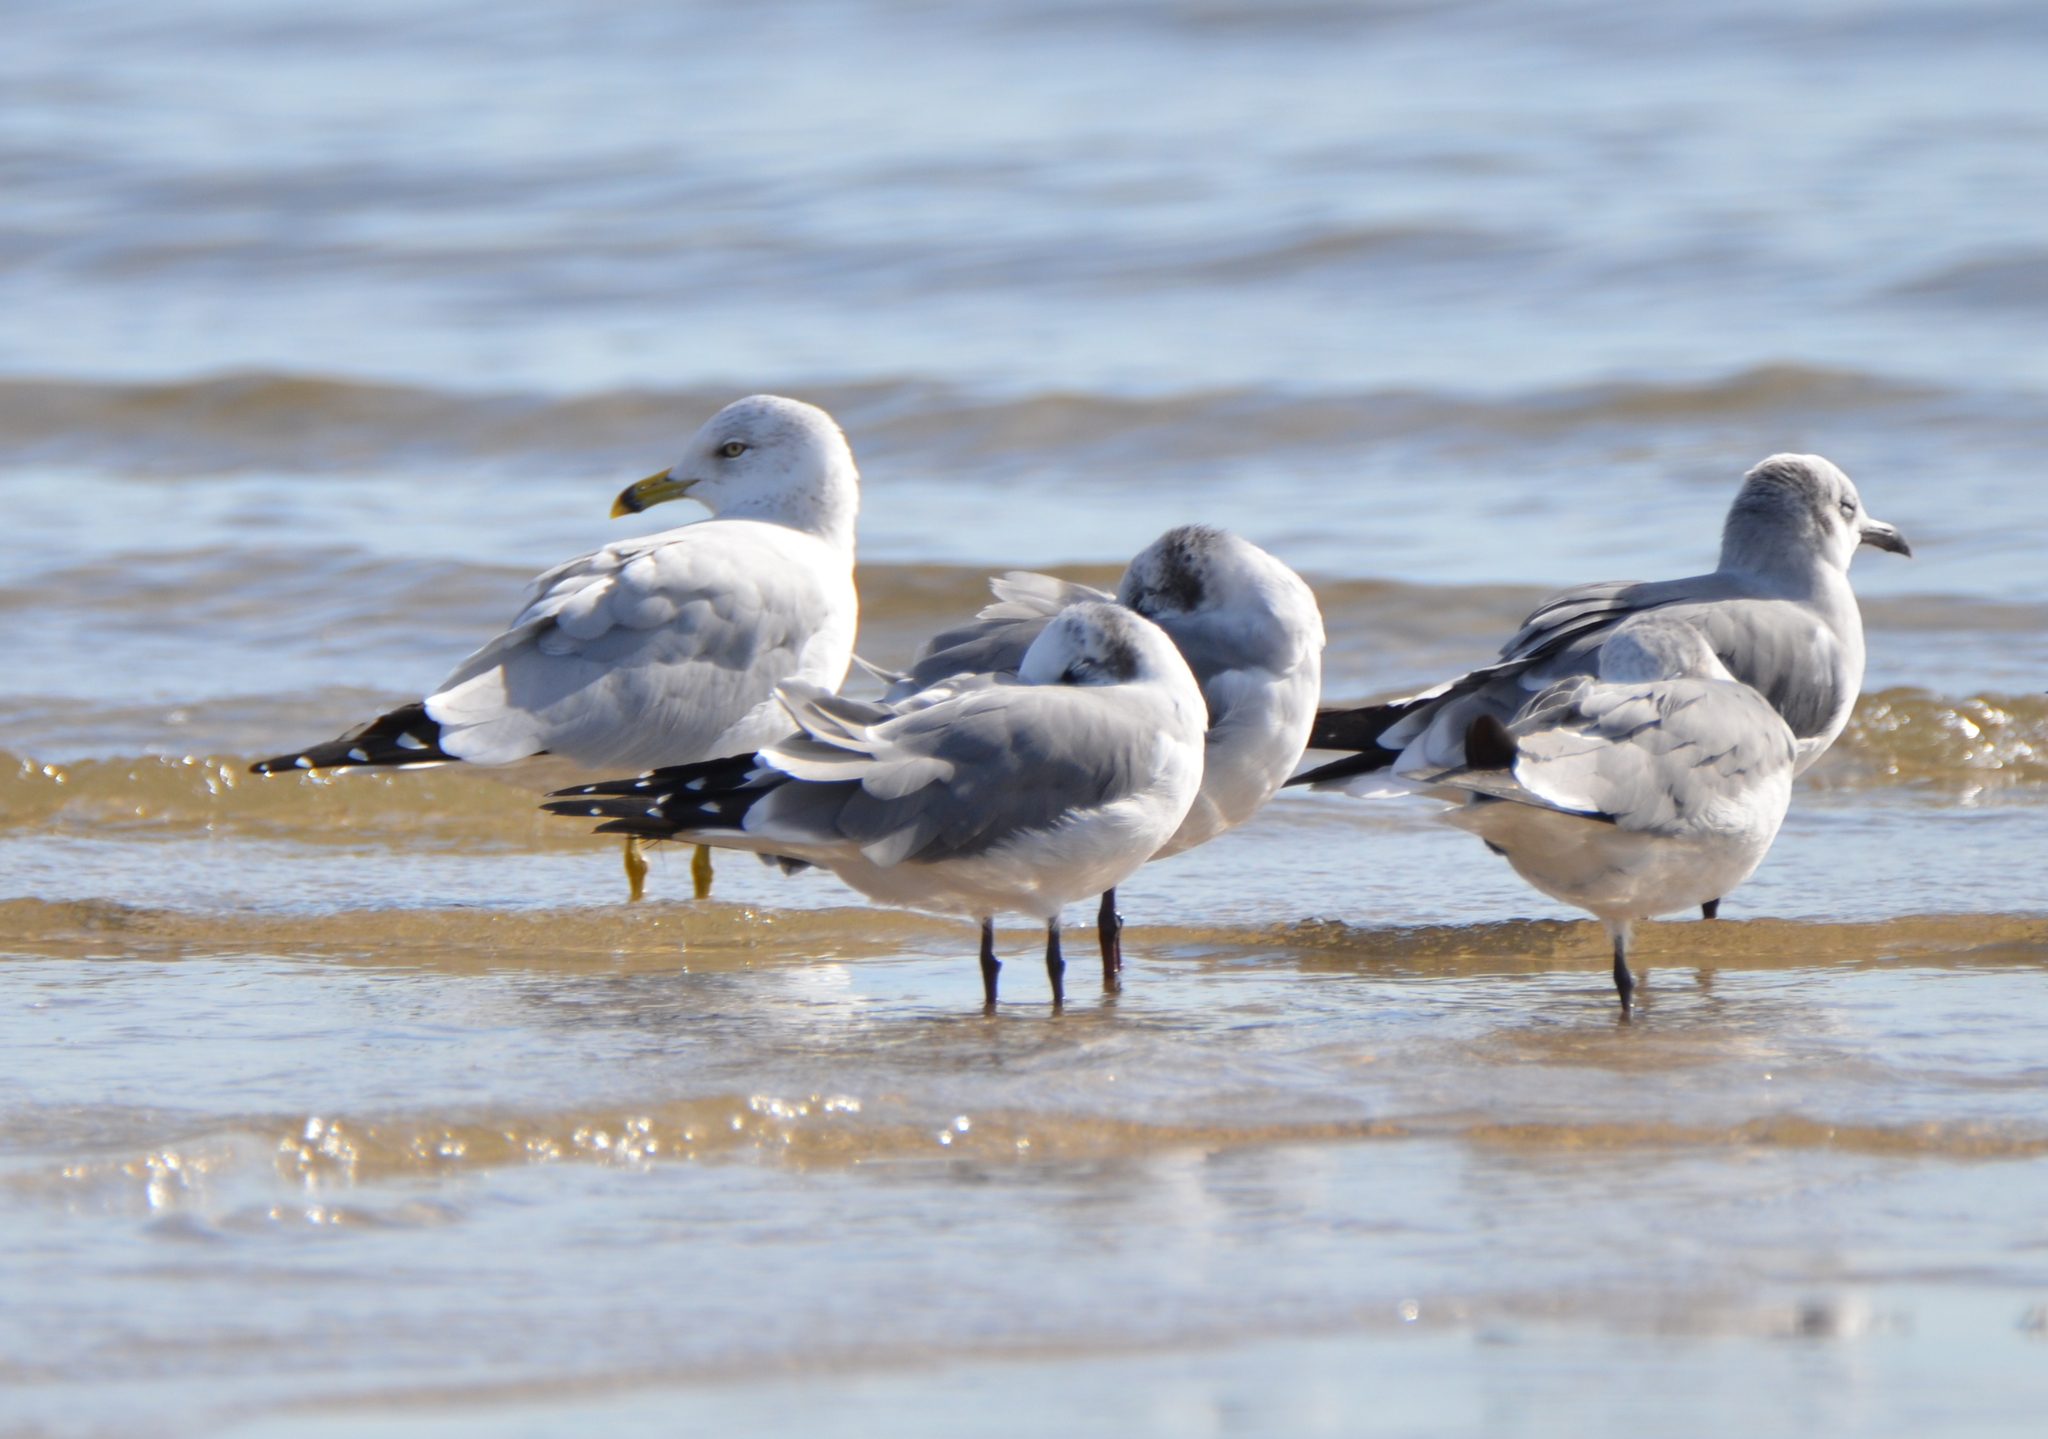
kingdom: Animalia
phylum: Chordata
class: Aves
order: Charadriiformes
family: Laridae
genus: Larus
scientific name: Larus delawarensis
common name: Ring-billed gull
